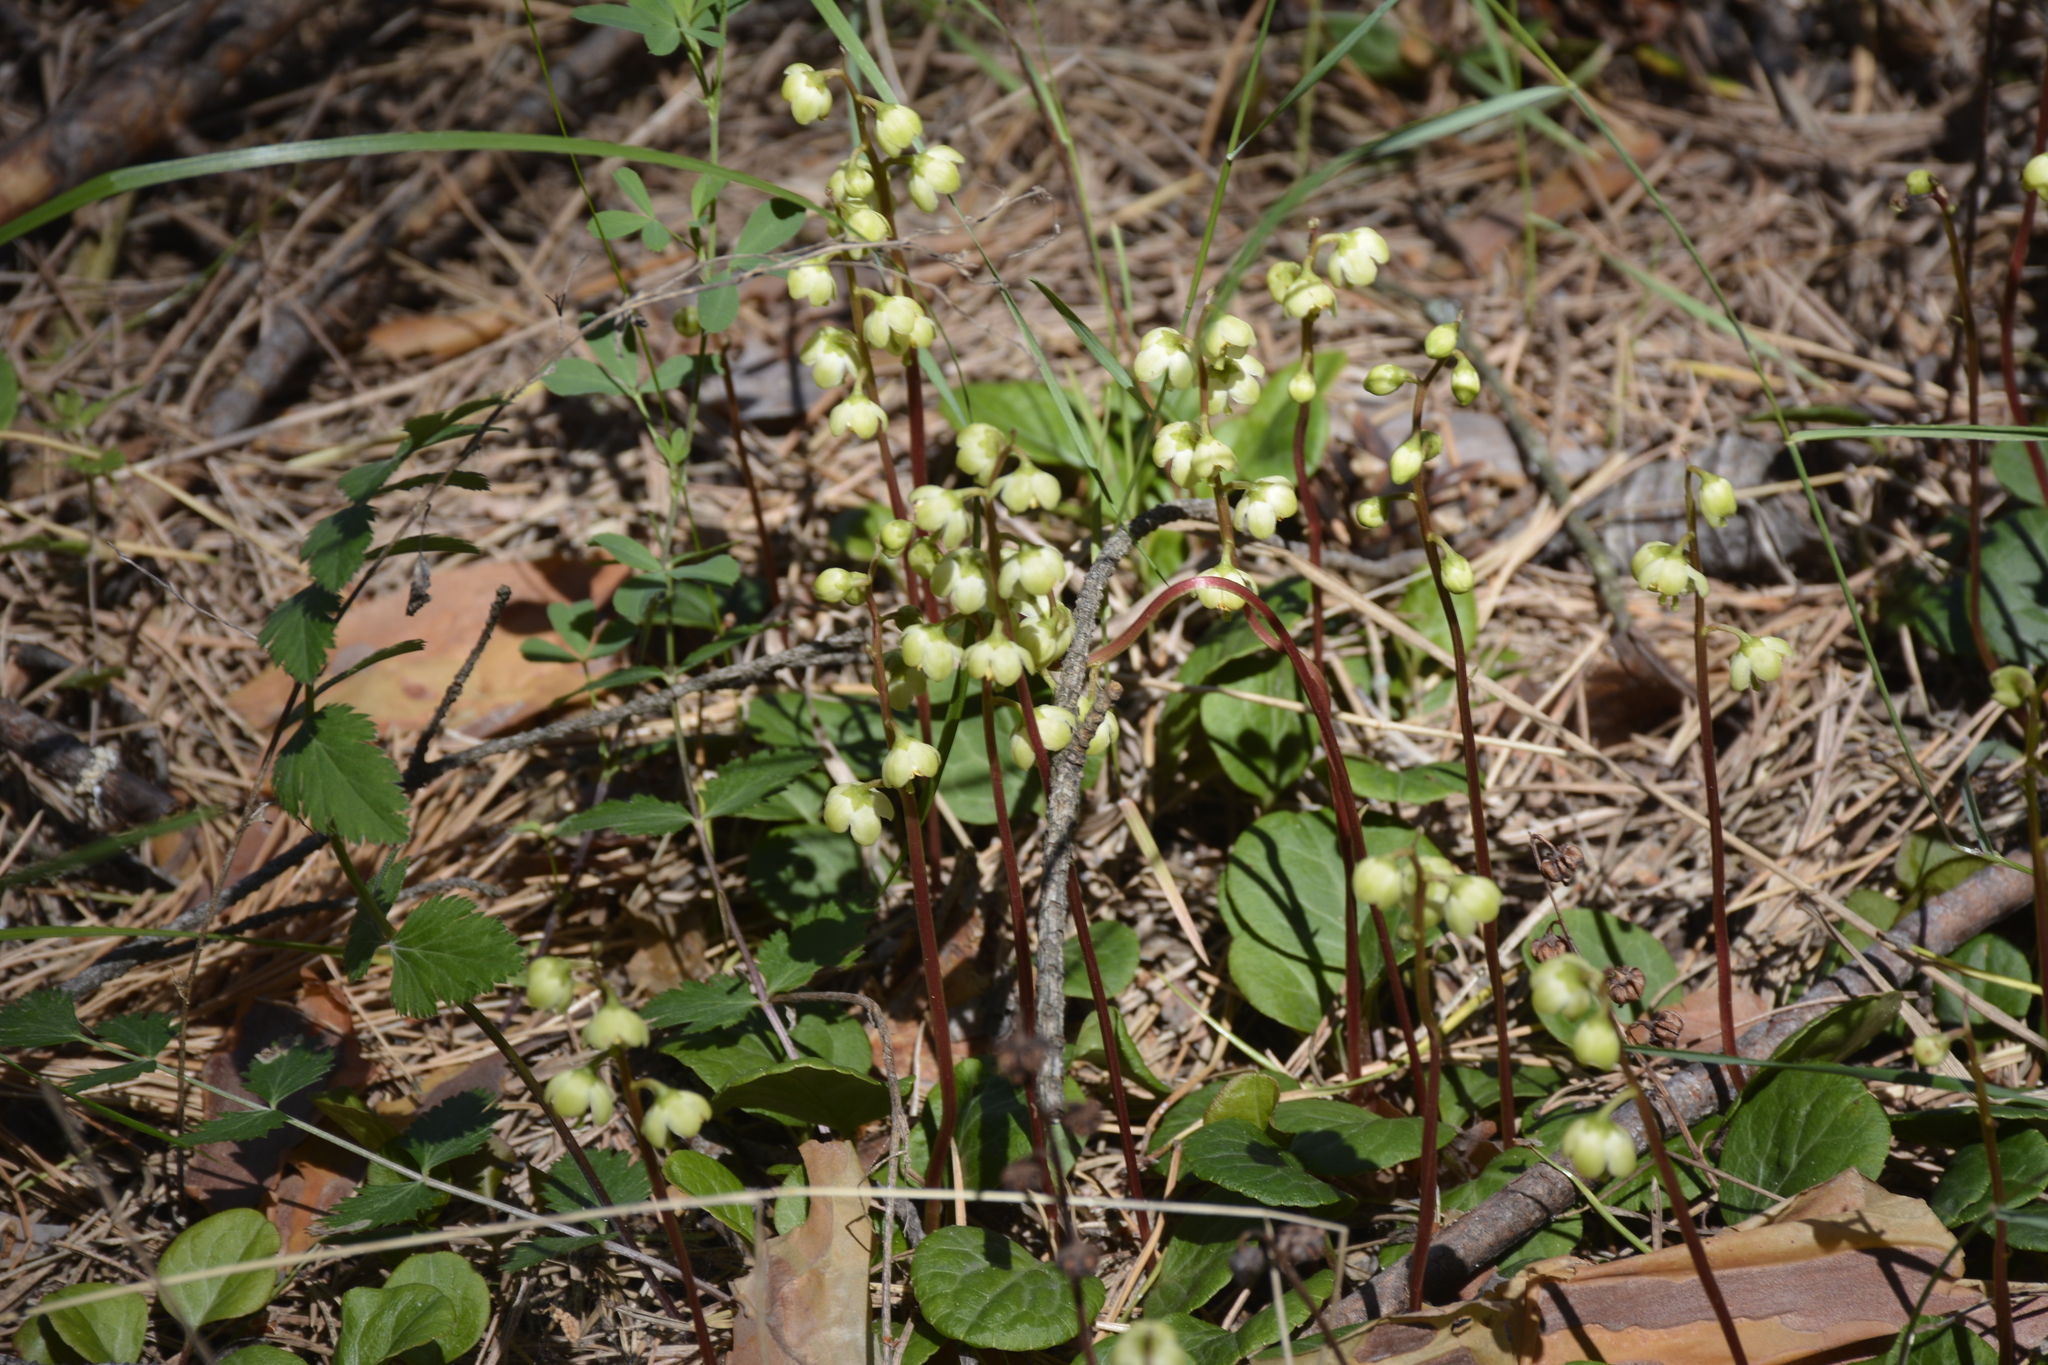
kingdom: Plantae
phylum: Tracheophyta
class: Magnoliopsida
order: Ericales
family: Ericaceae
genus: Pyrola
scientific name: Pyrola chlorantha
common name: Green wintergreen
